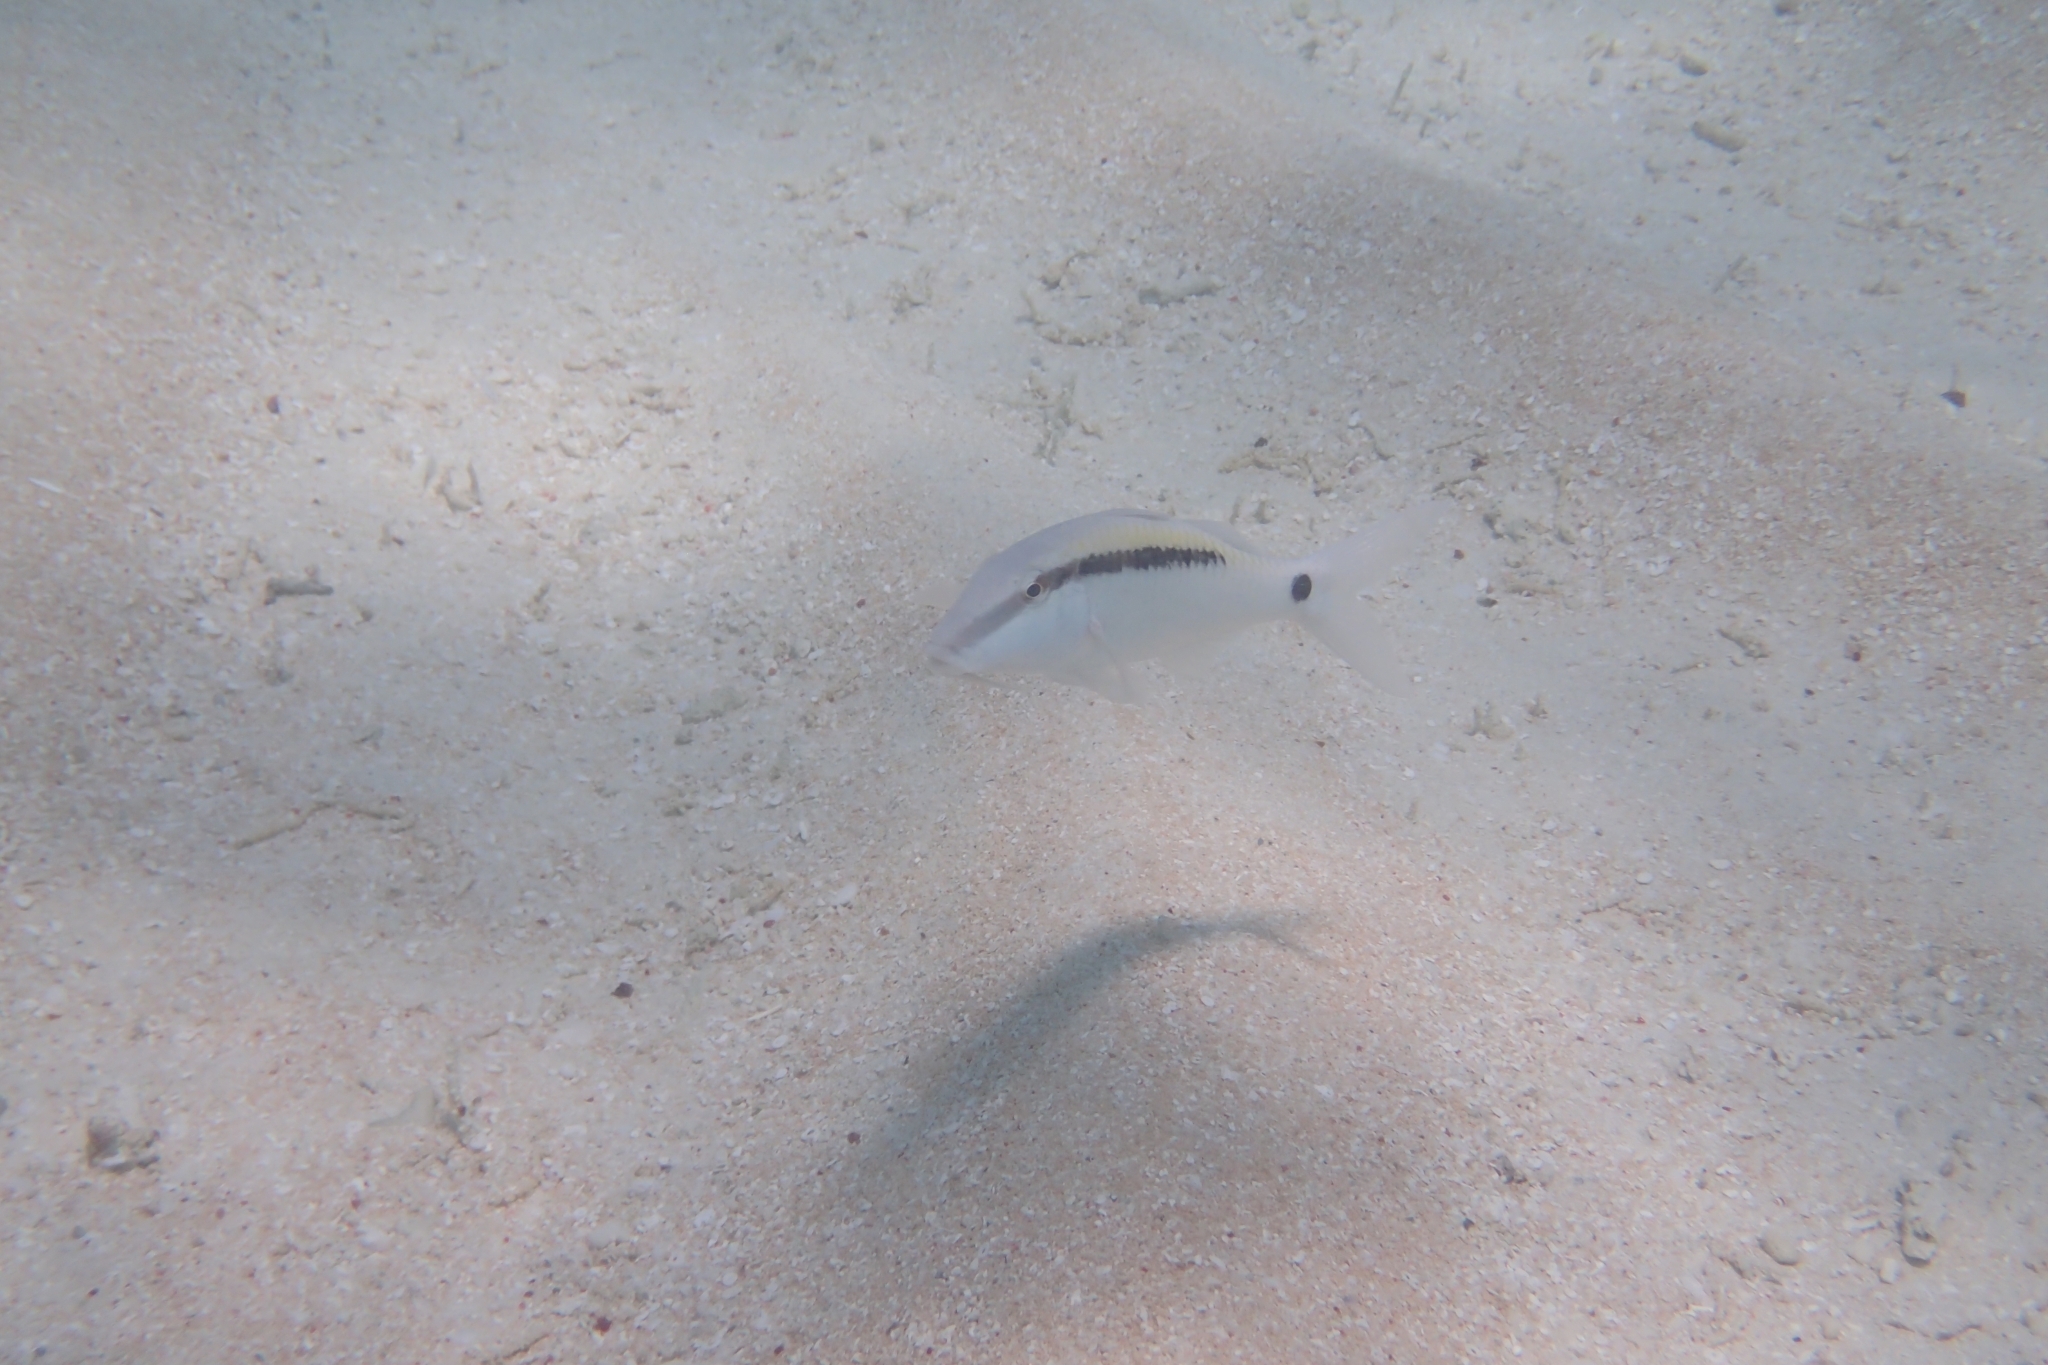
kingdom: Animalia
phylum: Chordata
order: Perciformes
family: Mullidae
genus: Parupeneus
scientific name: Parupeneus barberinus
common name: Dash-and-dot goatfish
